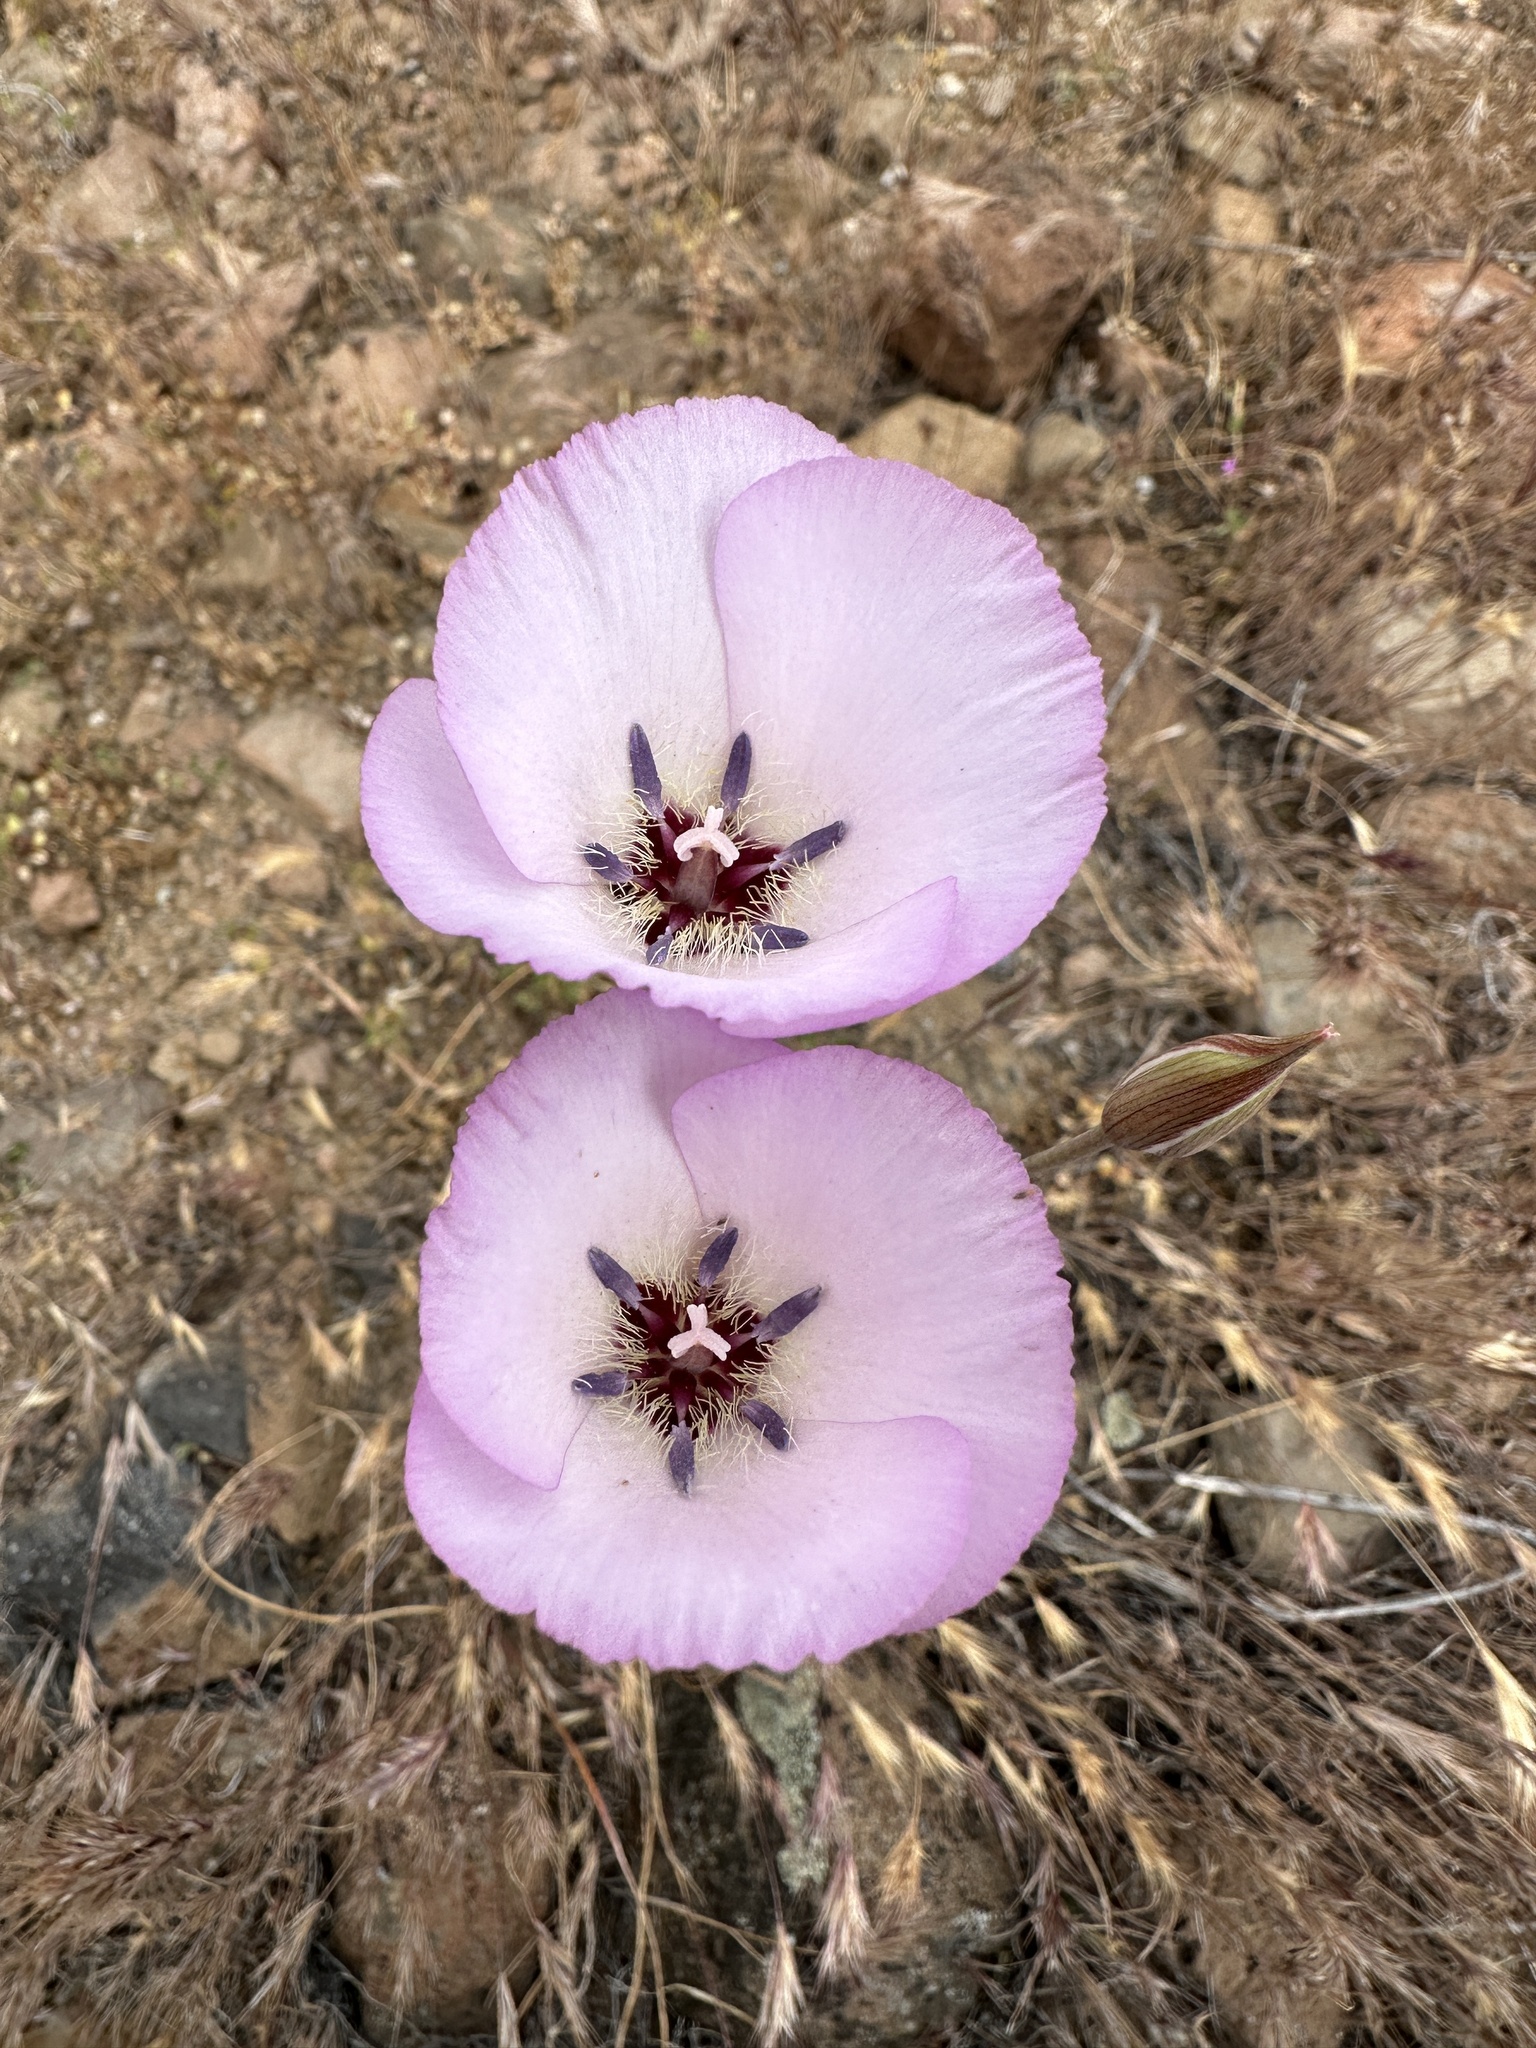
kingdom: Plantae
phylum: Tracheophyta
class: Liliopsida
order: Liliales
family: Liliaceae
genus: Calochortus
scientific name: Calochortus splendens
